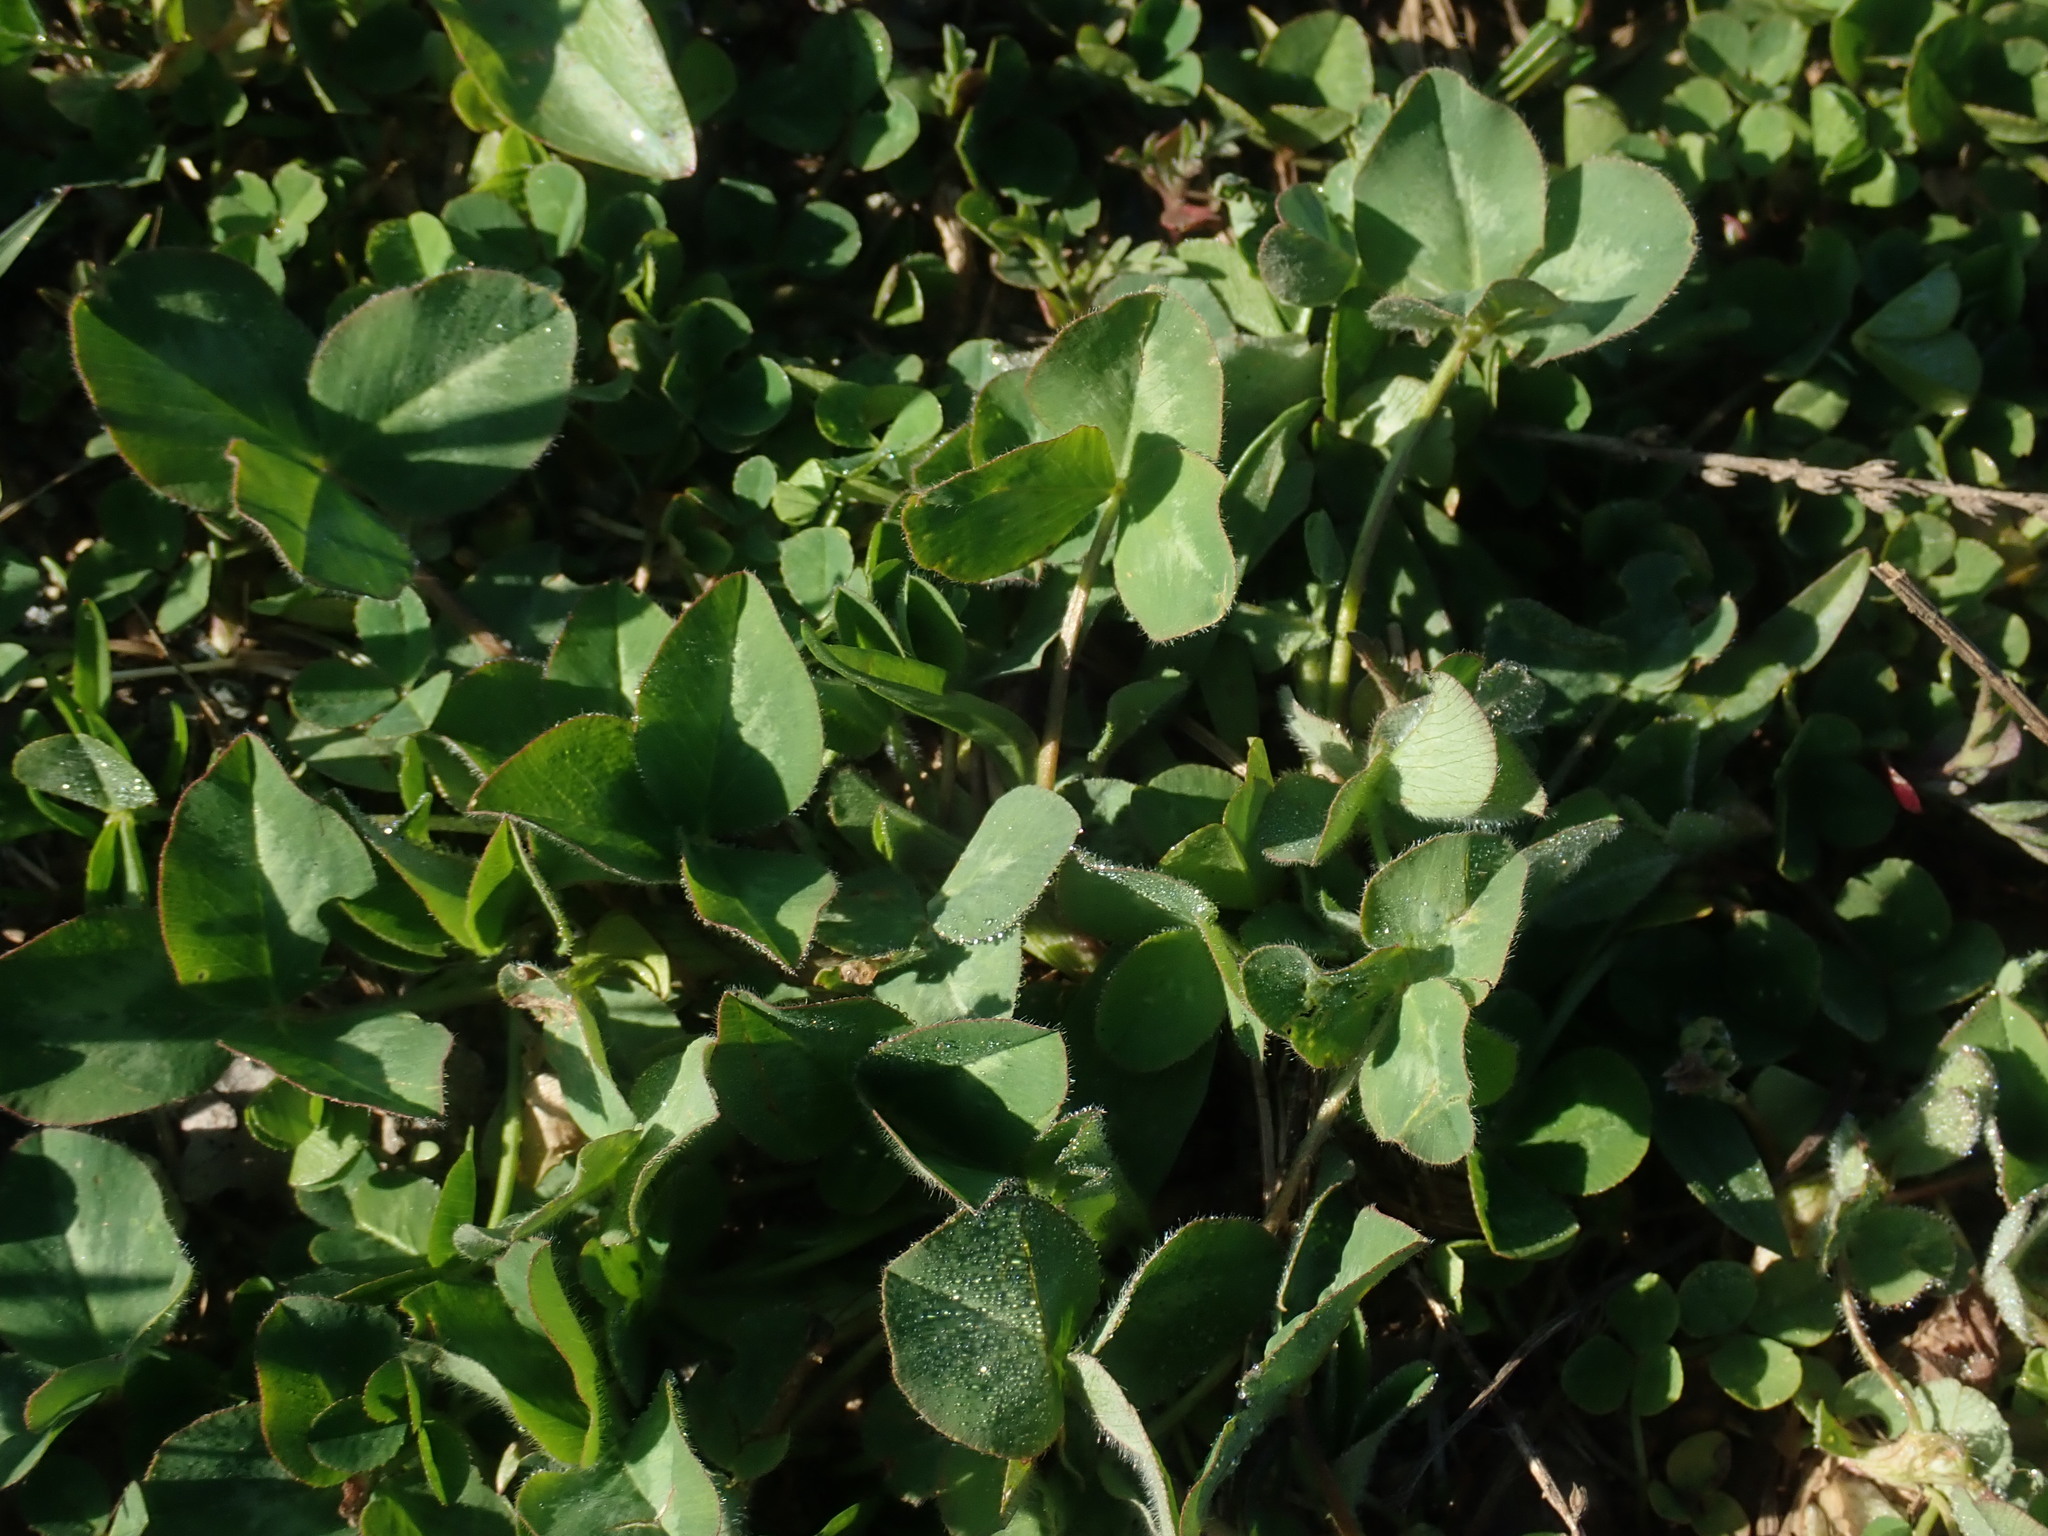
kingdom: Plantae
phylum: Tracheophyta
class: Magnoliopsida
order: Fabales
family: Fabaceae
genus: Trifolium
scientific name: Trifolium pratense
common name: Red clover
